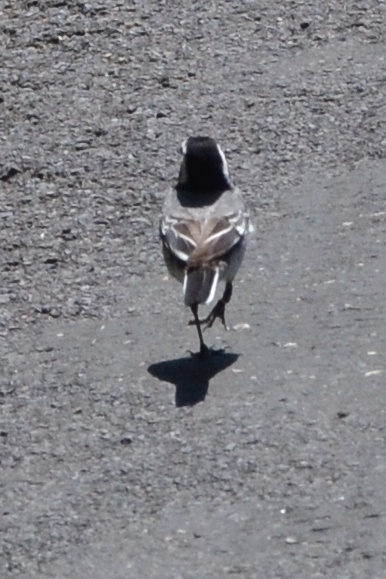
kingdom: Animalia
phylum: Chordata
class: Aves
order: Passeriformes
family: Motacillidae
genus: Motacilla
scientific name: Motacilla alba
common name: White wagtail
